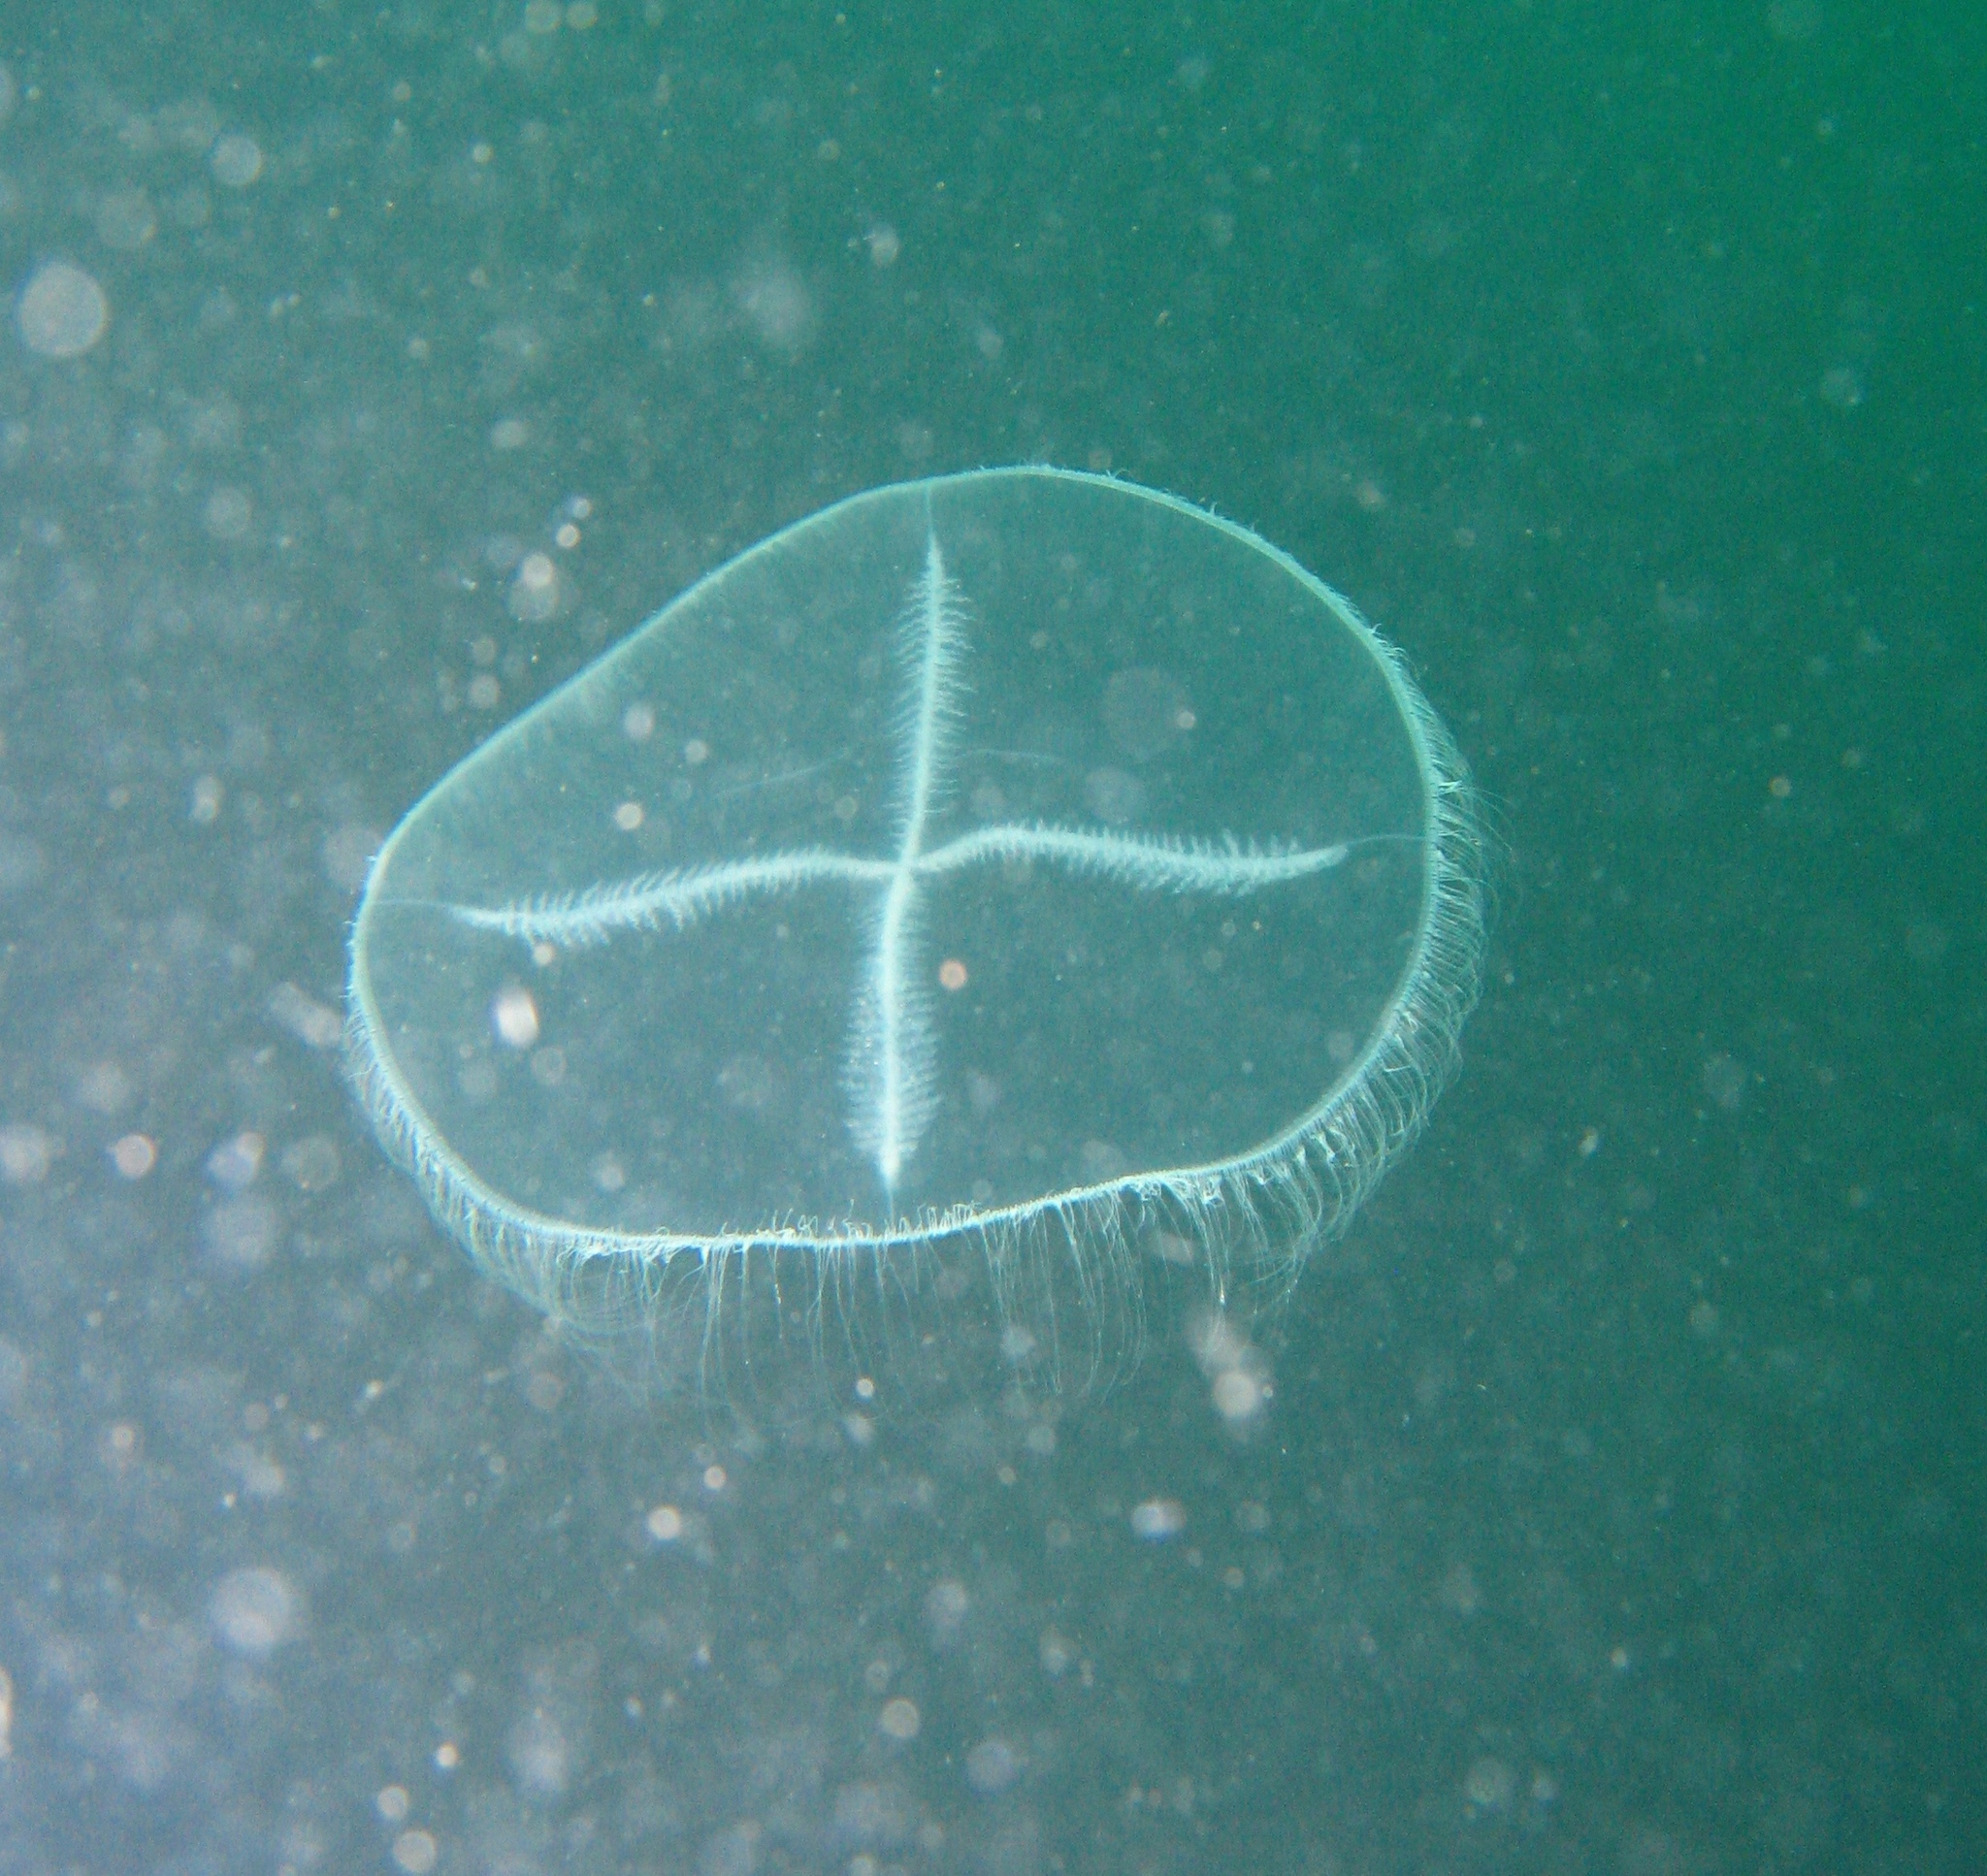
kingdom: Animalia
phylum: Cnidaria
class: Hydrozoa
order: Leptothecata
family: Laodiceidae
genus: Staurostoma
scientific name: Staurostoma mertensii
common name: Whitecross jellyfish
